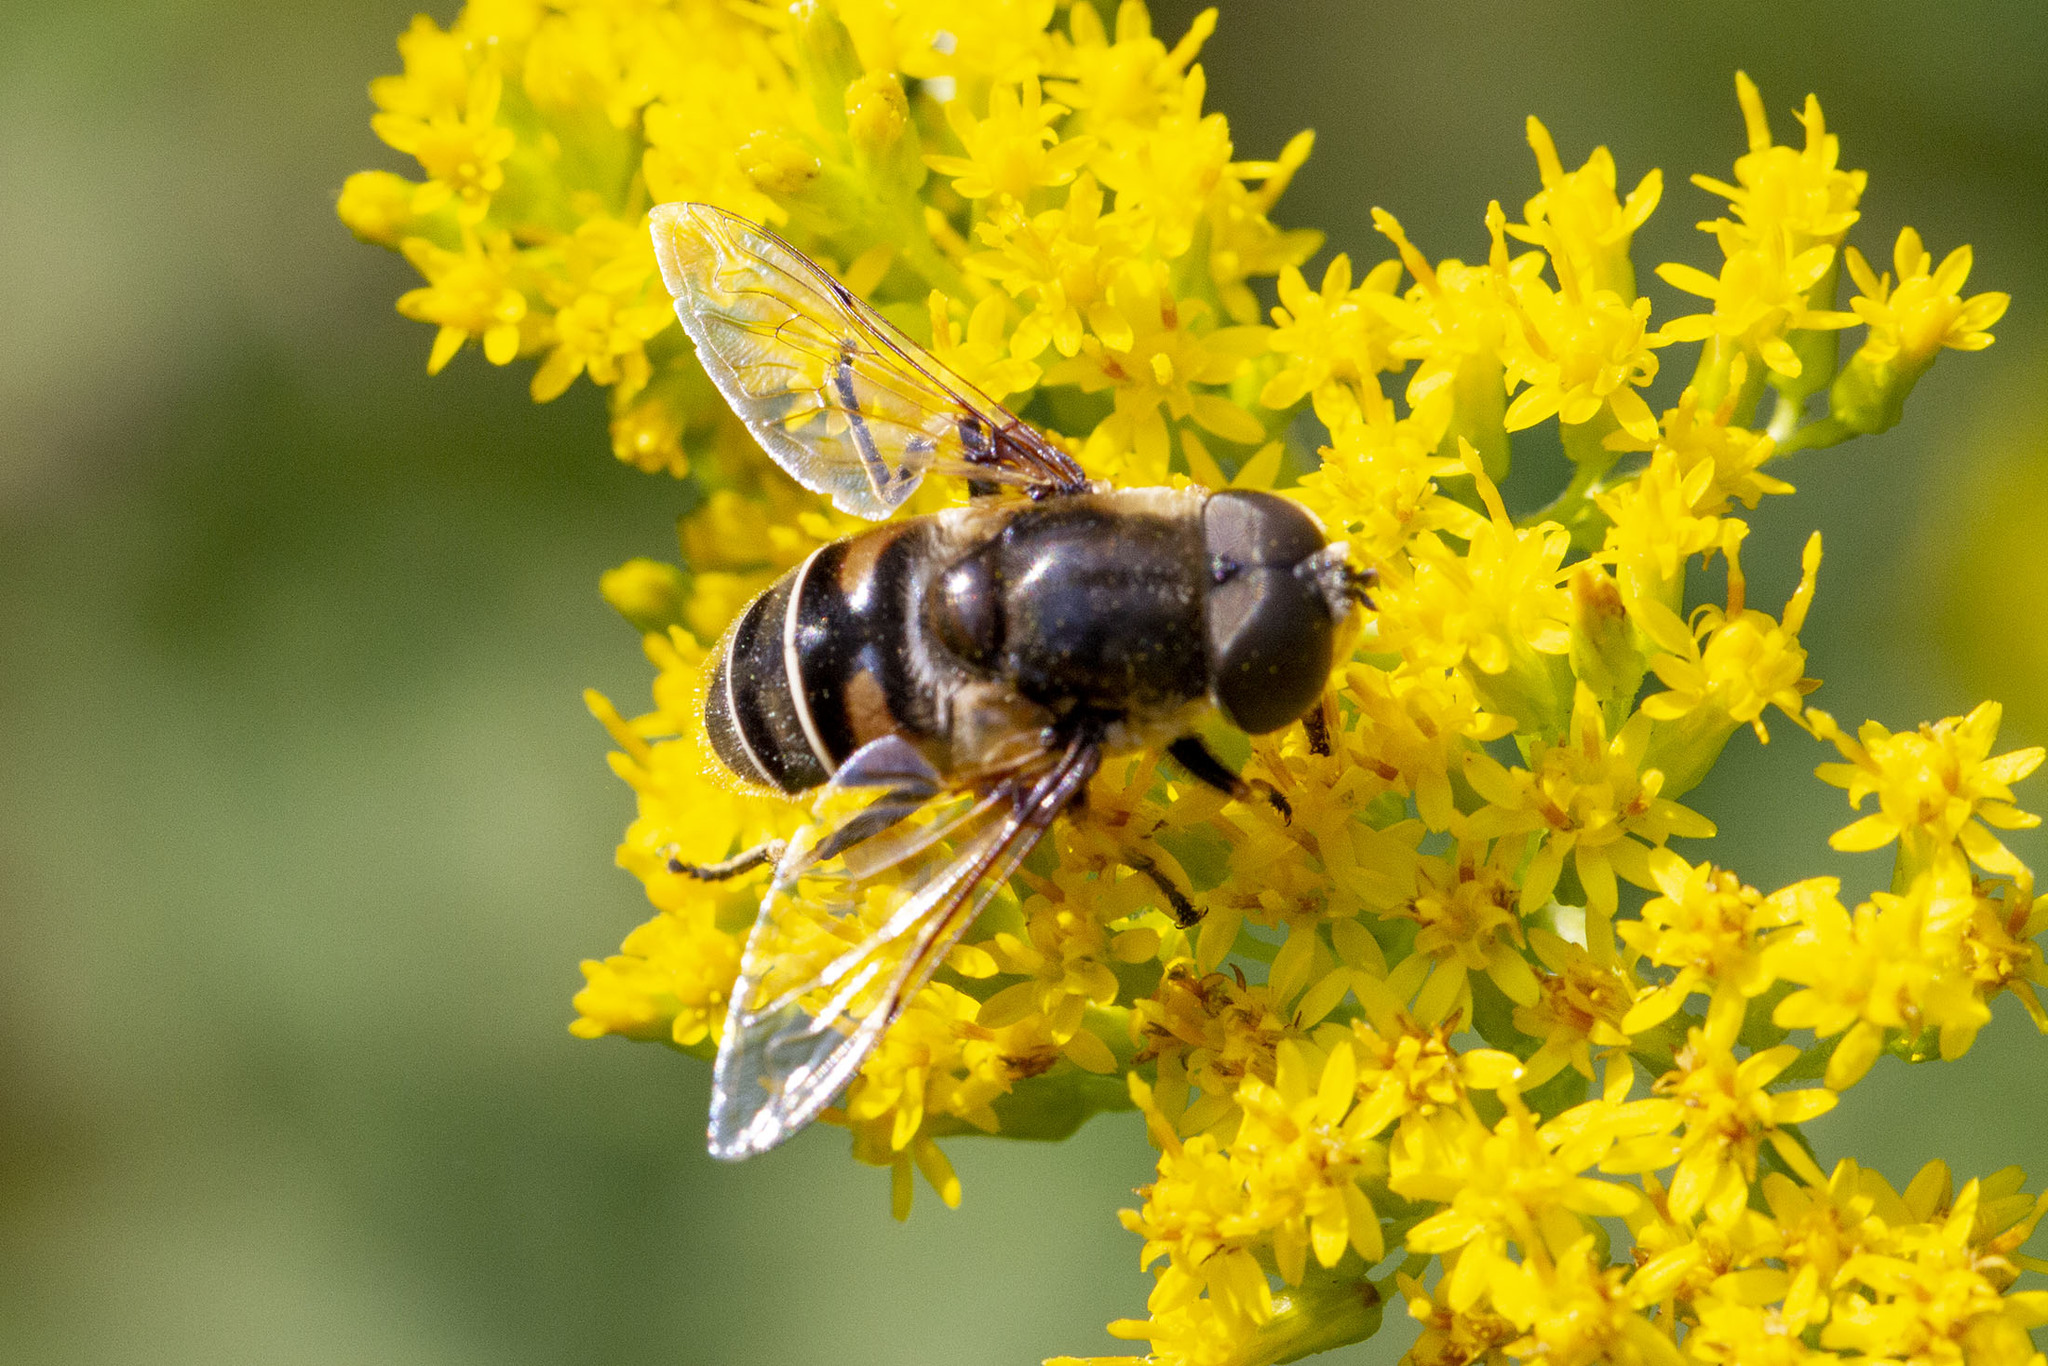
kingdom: Animalia
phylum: Arthropoda
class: Insecta
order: Diptera
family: Syrphidae
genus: Eristalis
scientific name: Eristalis dimidiata
